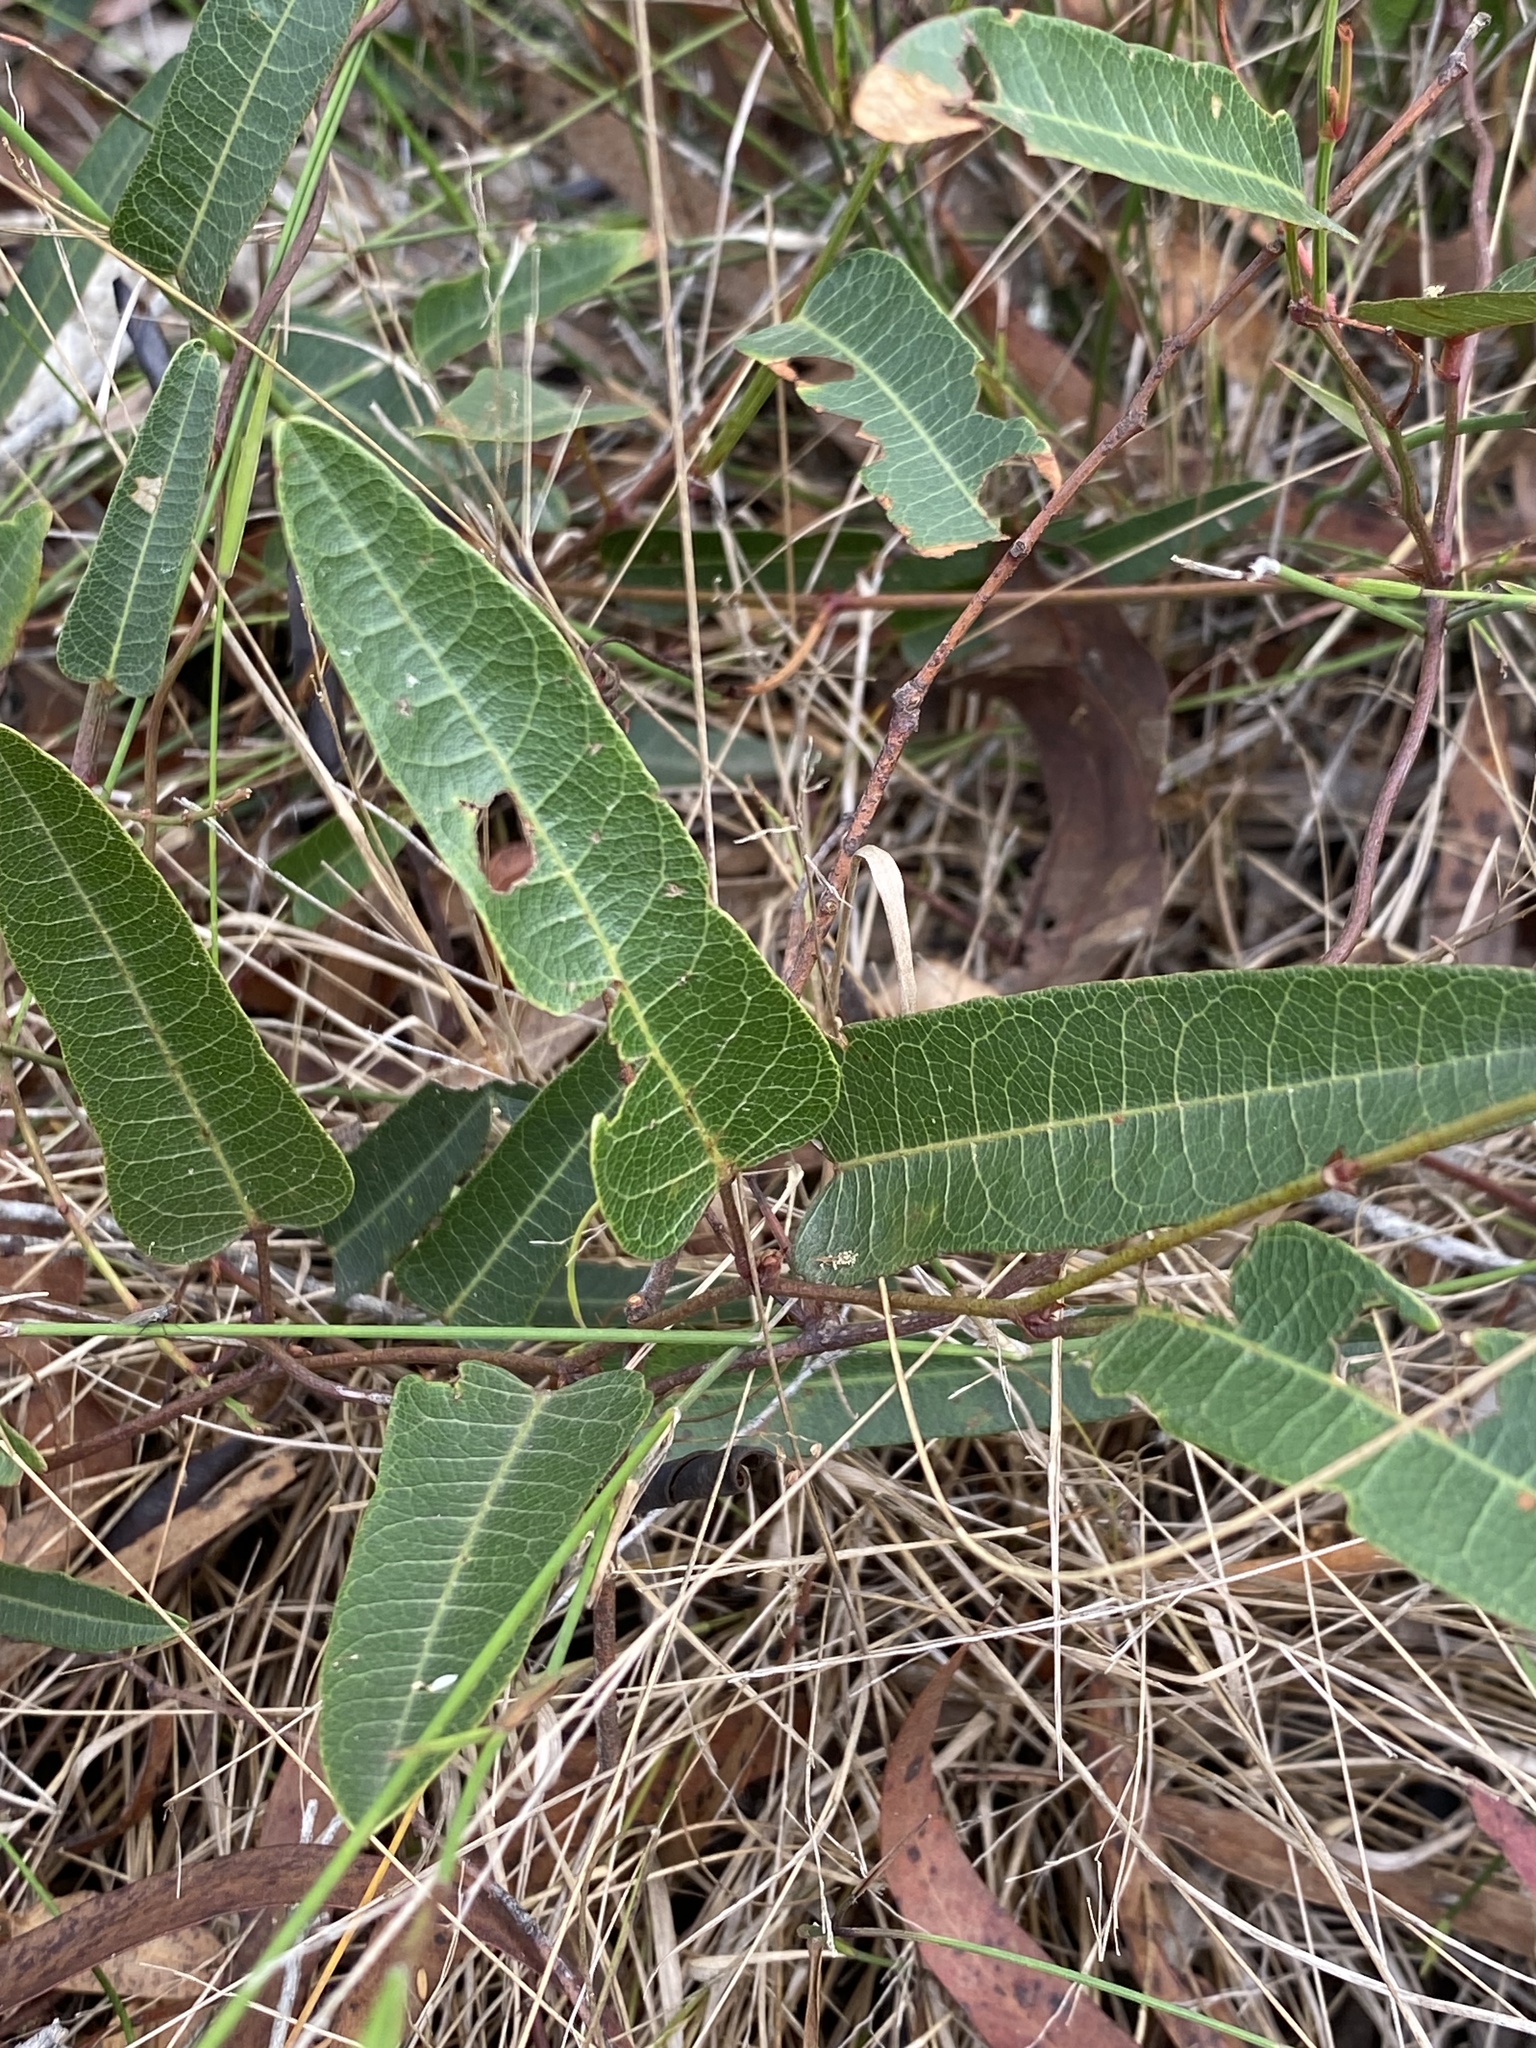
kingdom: Plantae
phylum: Tracheophyta
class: Magnoliopsida
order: Fabales
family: Fabaceae
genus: Hardenbergia
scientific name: Hardenbergia violacea
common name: Coral-pea
